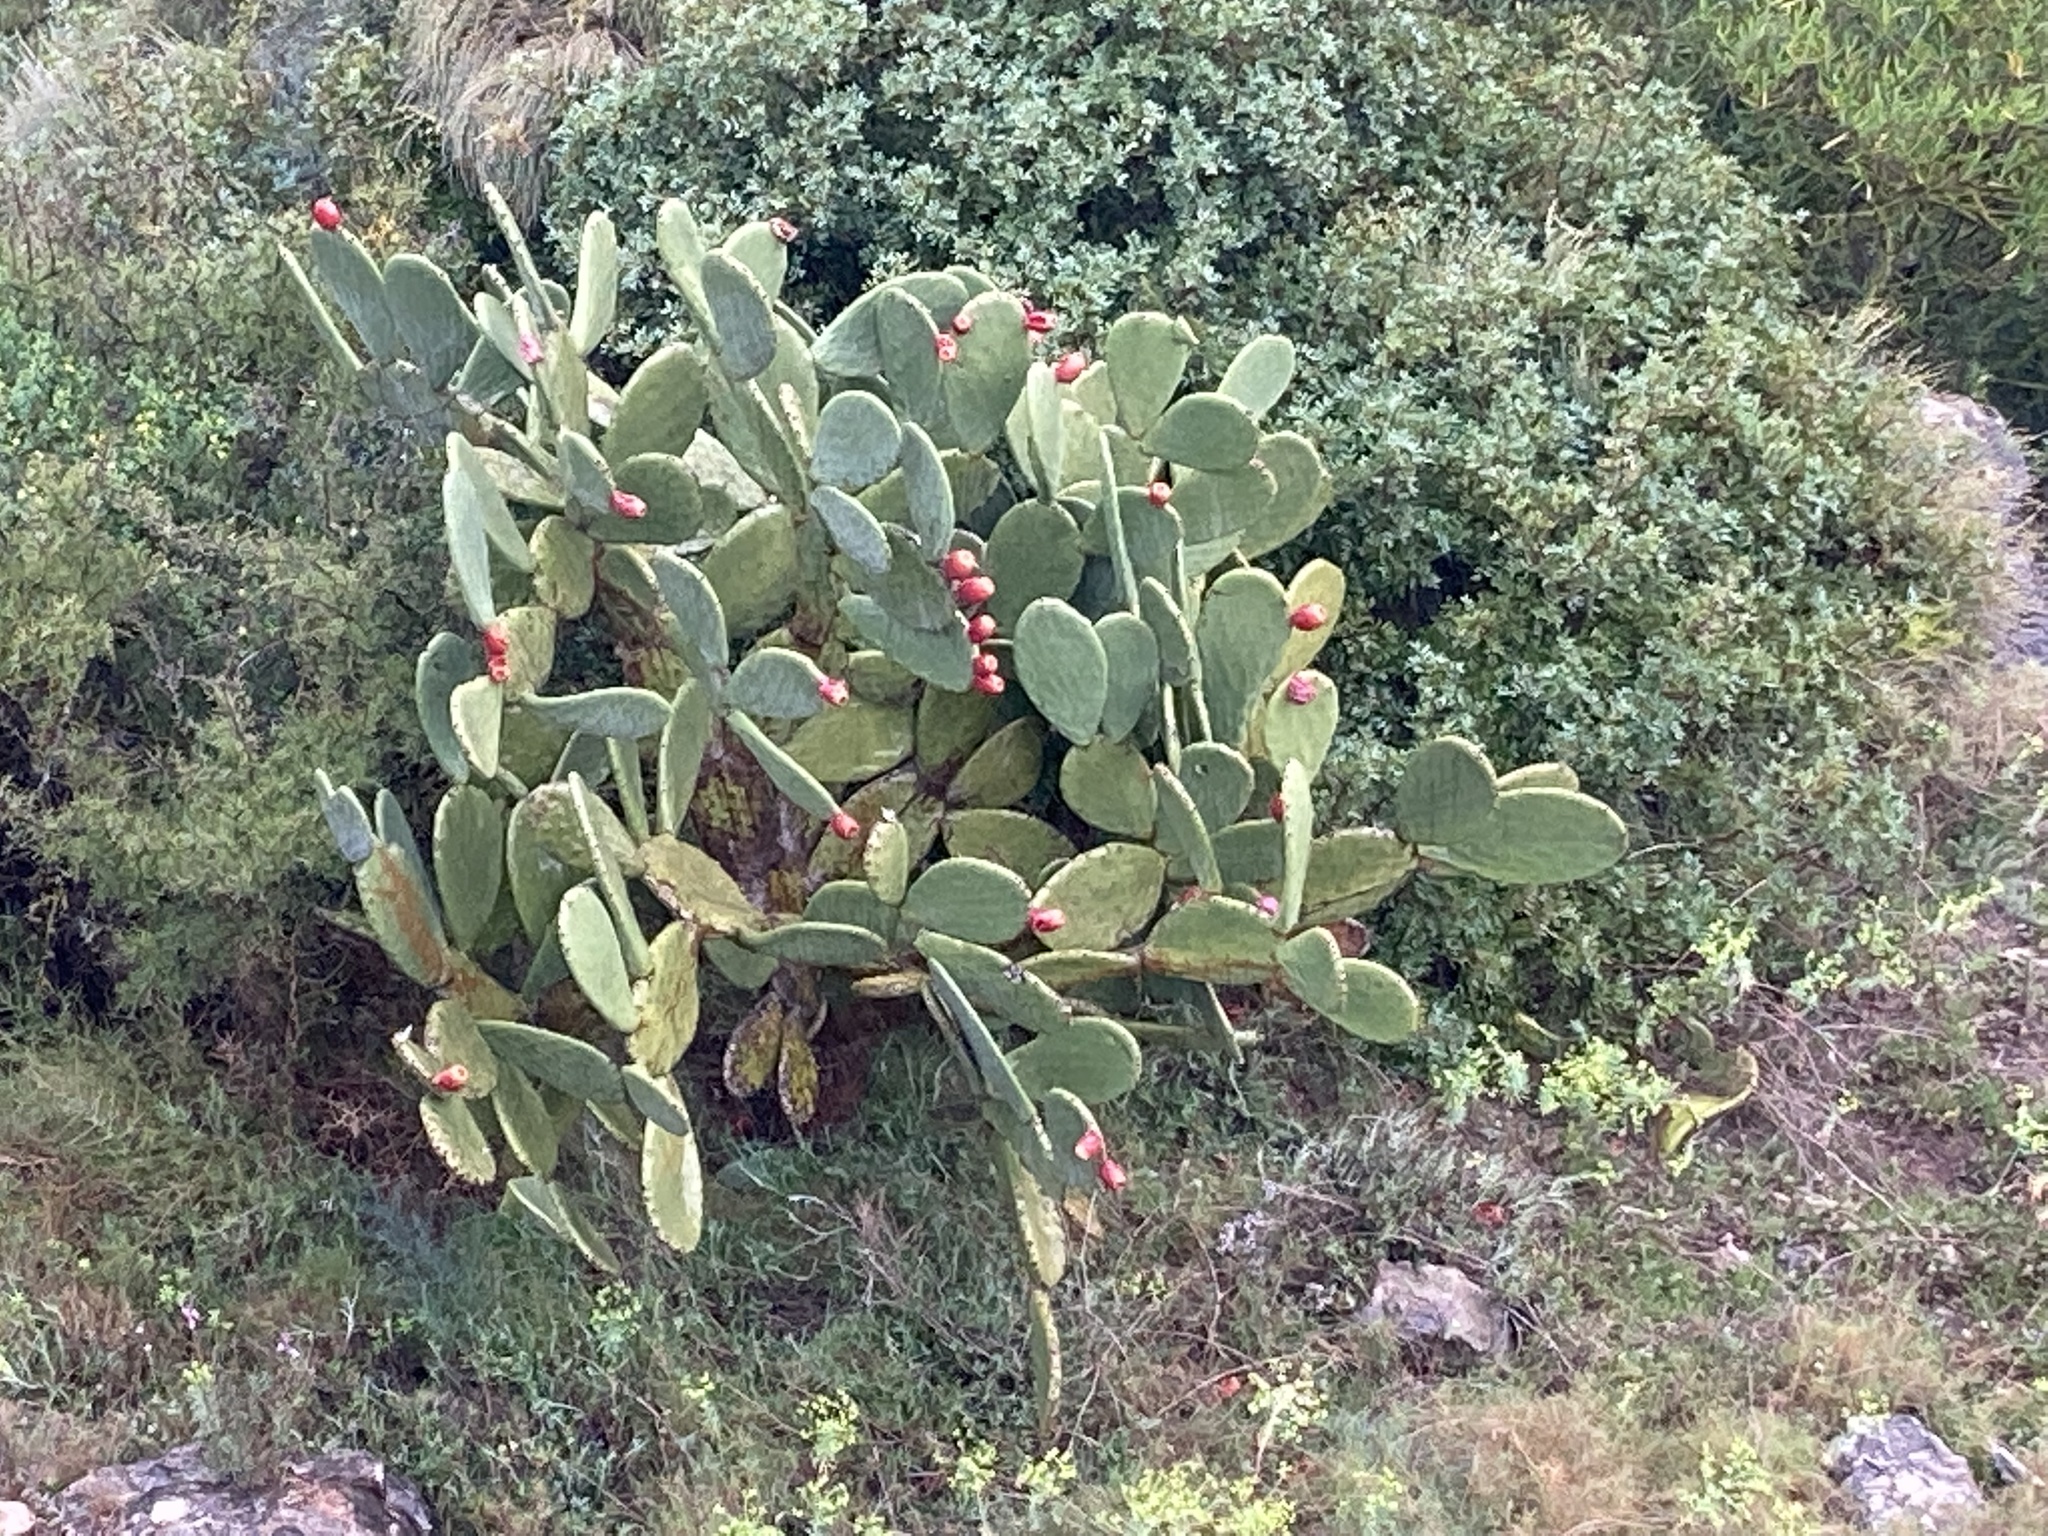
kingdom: Plantae
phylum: Tracheophyta
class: Magnoliopsida
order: Caryophyllales
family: Cactaceae
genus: Opuntia
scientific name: Opuntia ficus-indica
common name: Barbary fig
